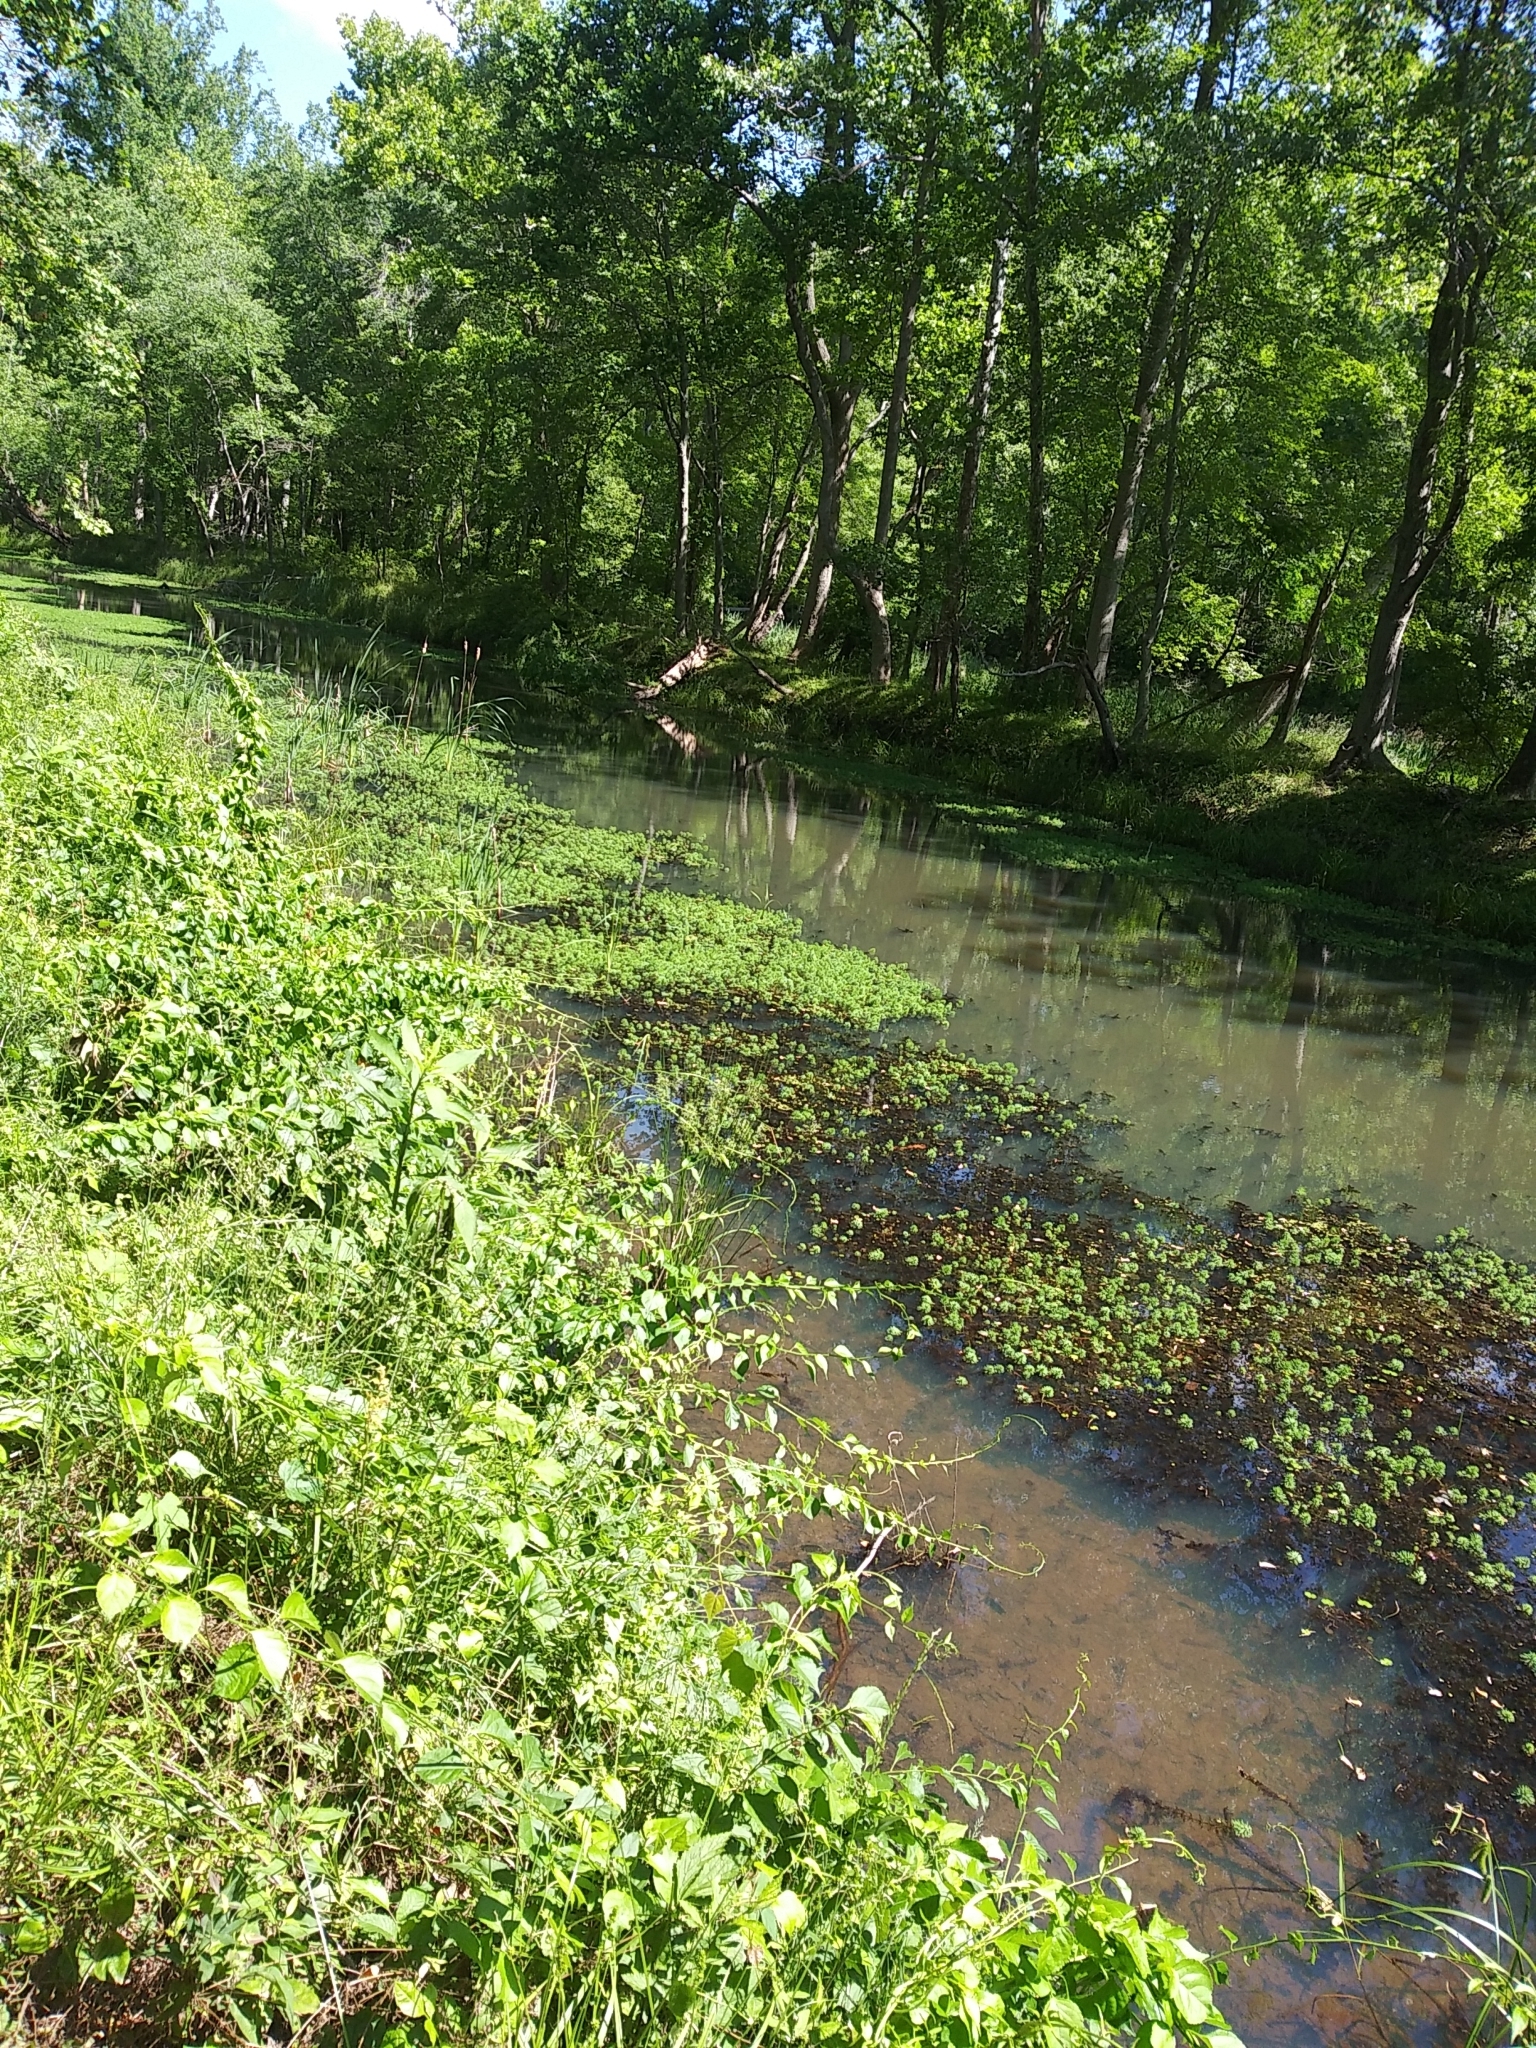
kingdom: Plantae
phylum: Tracheophyta
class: Magnoliopsida
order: Saxifragales
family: Haloragaceae
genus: Myriophyllum
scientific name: Myriophyllum aquaticum
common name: Parrot's feather
